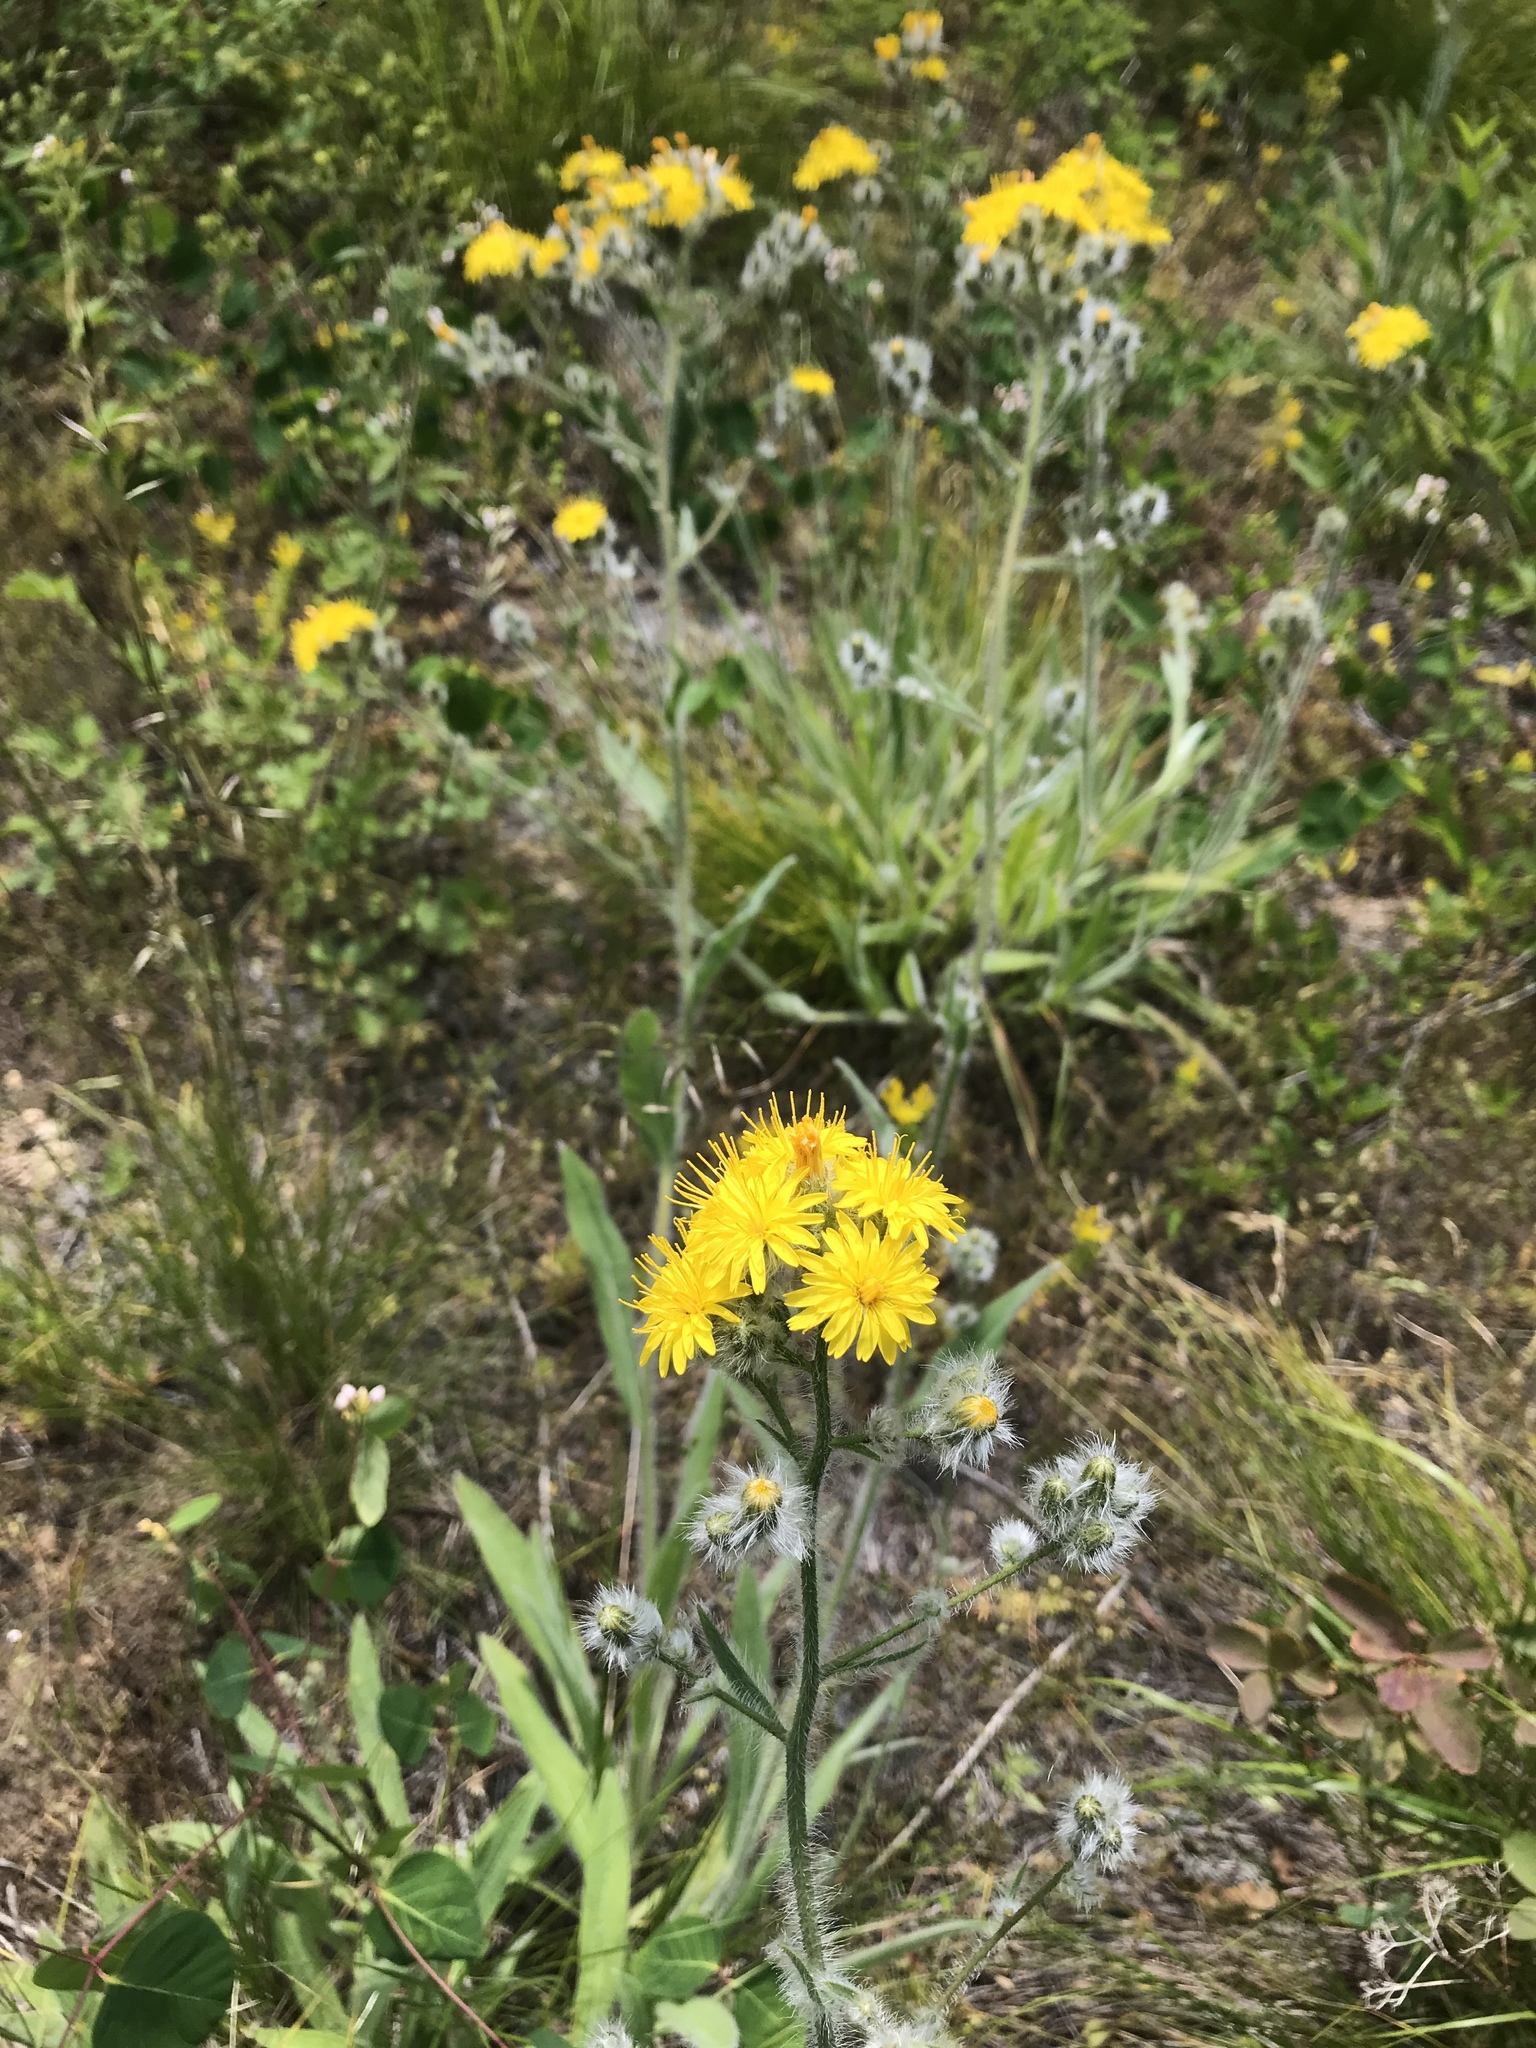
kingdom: Plantae
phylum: Tracheophyta
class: Magnoliopsida
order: Asterales
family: Asteraceae
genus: Hieracium
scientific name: Hieracium scouleri
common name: Hound's-tongue hawkweed
